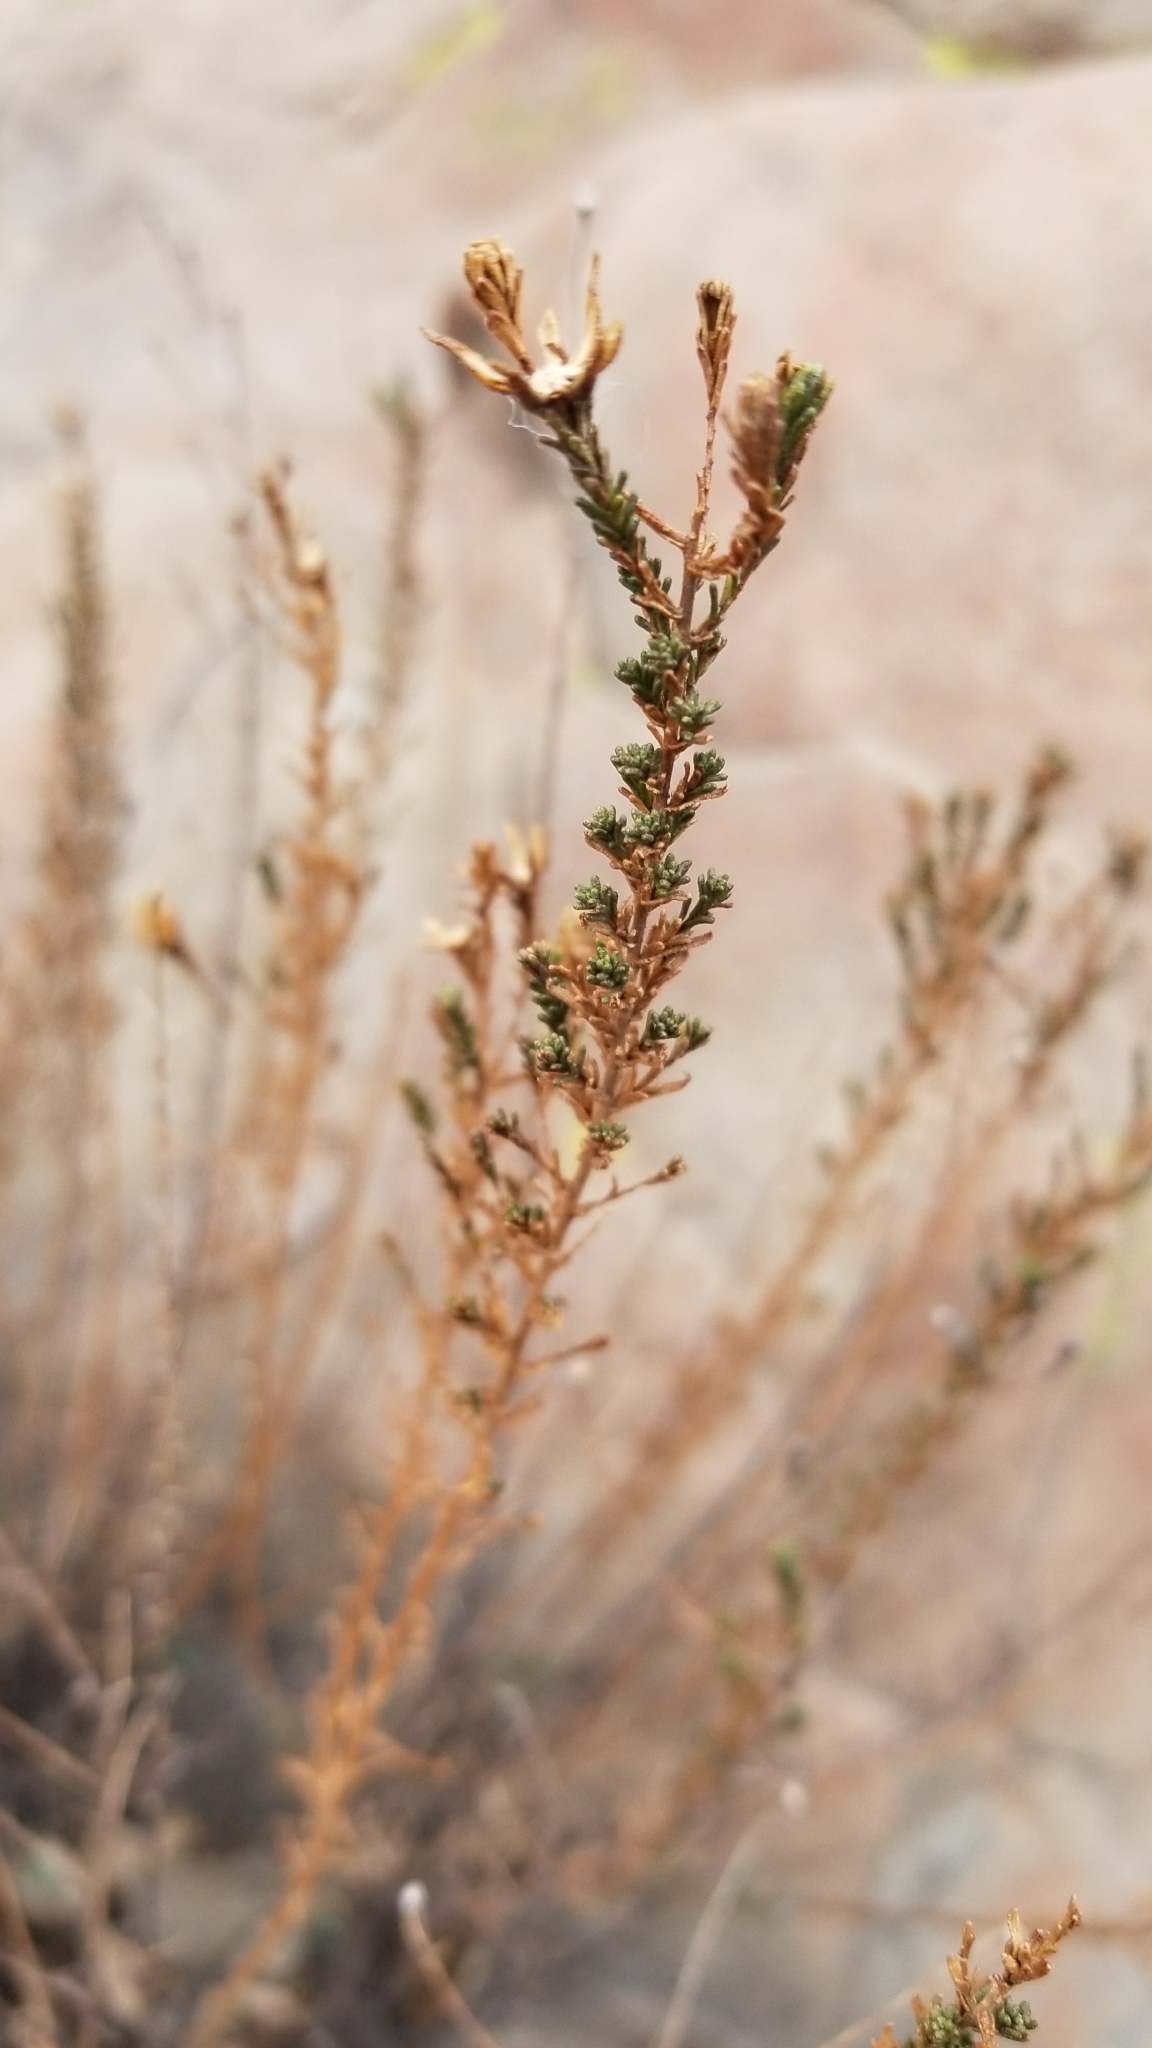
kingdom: Plantae
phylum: Tracheophyta
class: Magnoliopsida
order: Asterales
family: Asteraceae
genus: Deinandra
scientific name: Deinandra minthornii
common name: Santa susana tarplant
